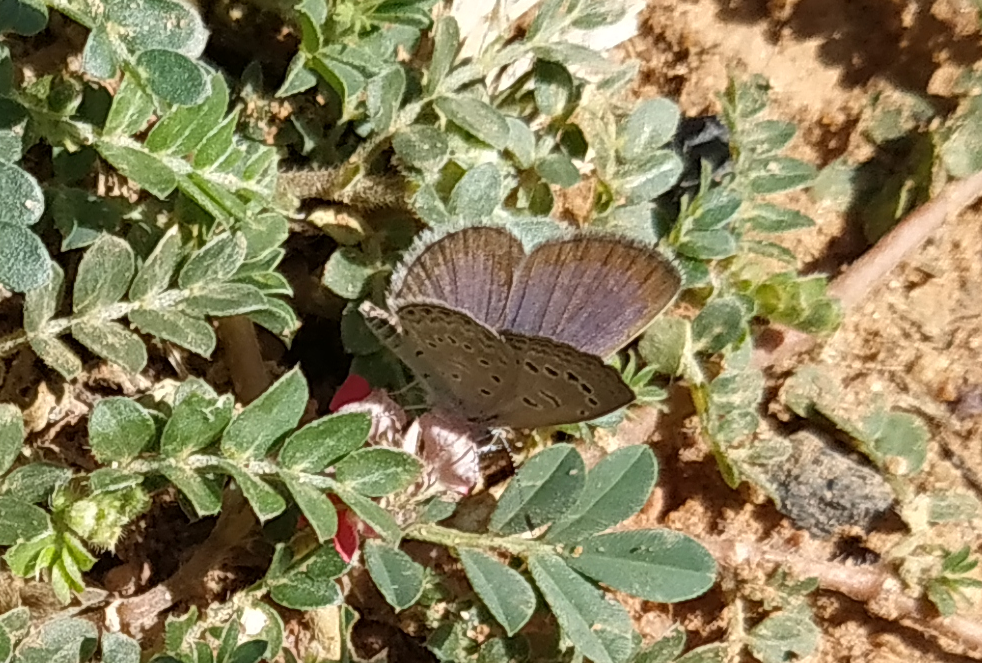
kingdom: Animalia
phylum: Arthropoda
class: Insecta
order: Lepidoptera
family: Lycaenidae
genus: Zizeeria
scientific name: Zizeeria karsandra
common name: Dark grass blue
